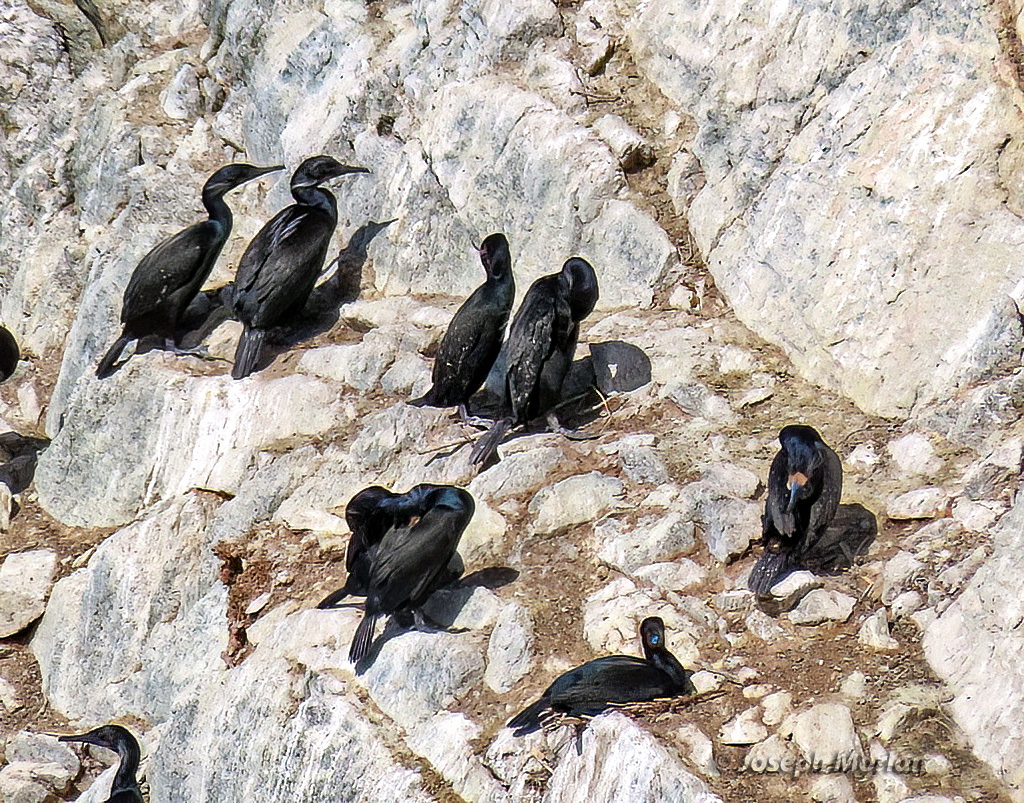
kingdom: Animalia
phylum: Chordata
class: Aves
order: Suliformes
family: Phalacrocoracidae
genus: Urile
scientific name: Urile penicillatus
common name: Brandt's cormorant
